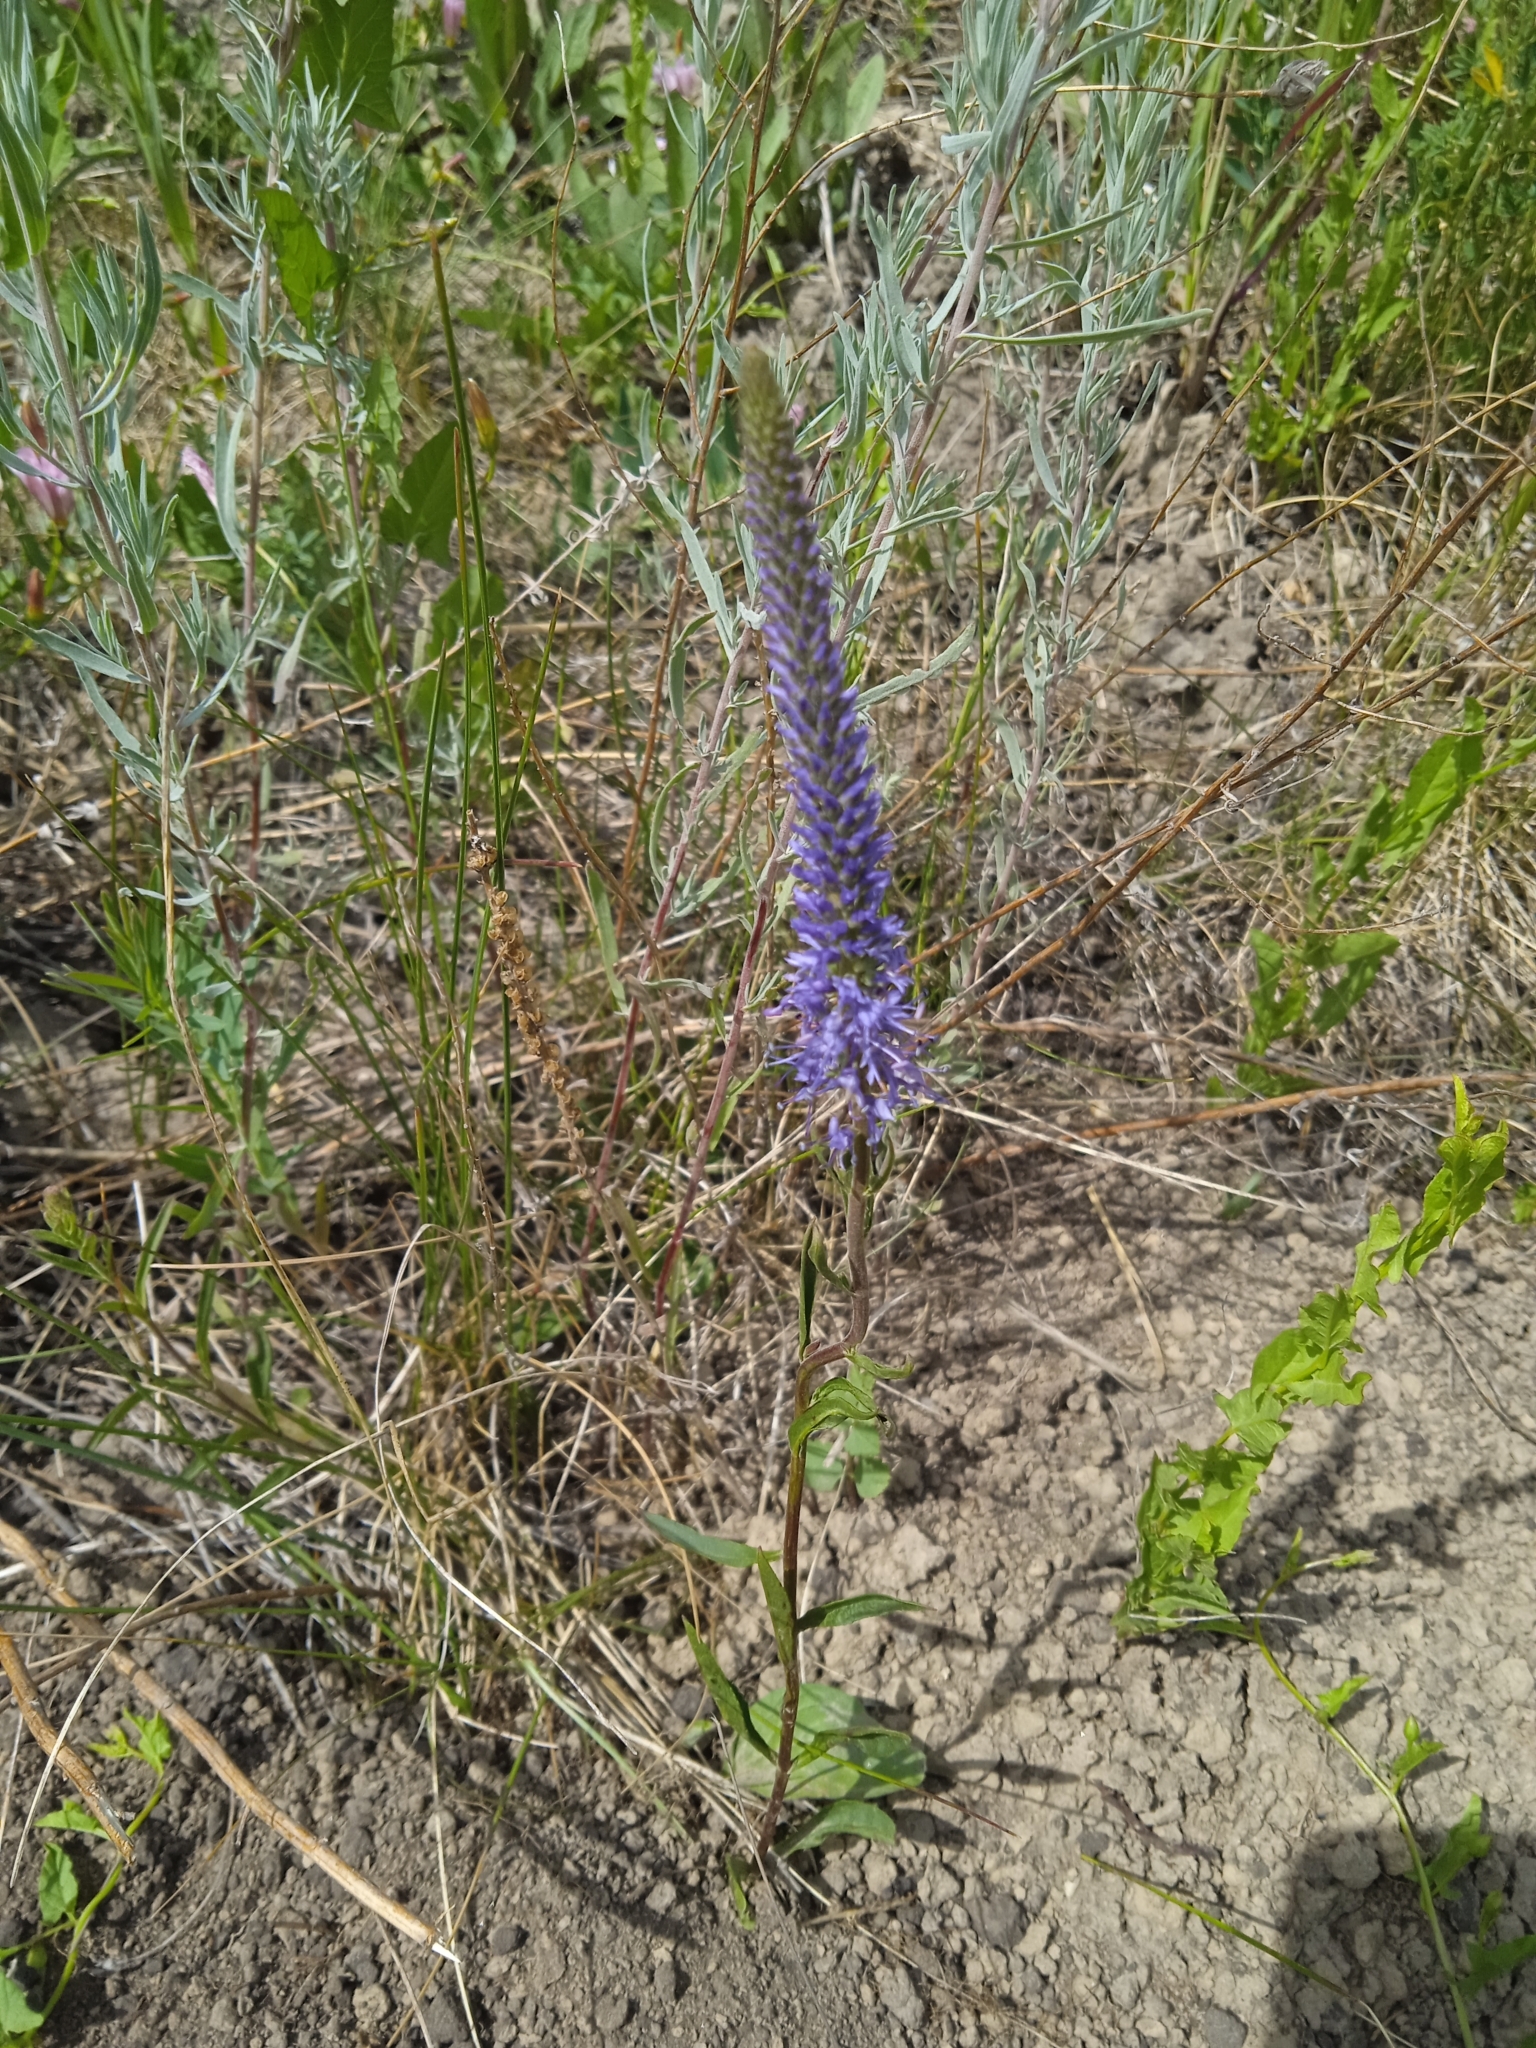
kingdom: Plantae
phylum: Tracheophyta
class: Magnoliopsida
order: Lamiales
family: Plantaginaceae
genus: Veronica
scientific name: Veronica spicata
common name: Spiked speedwell
